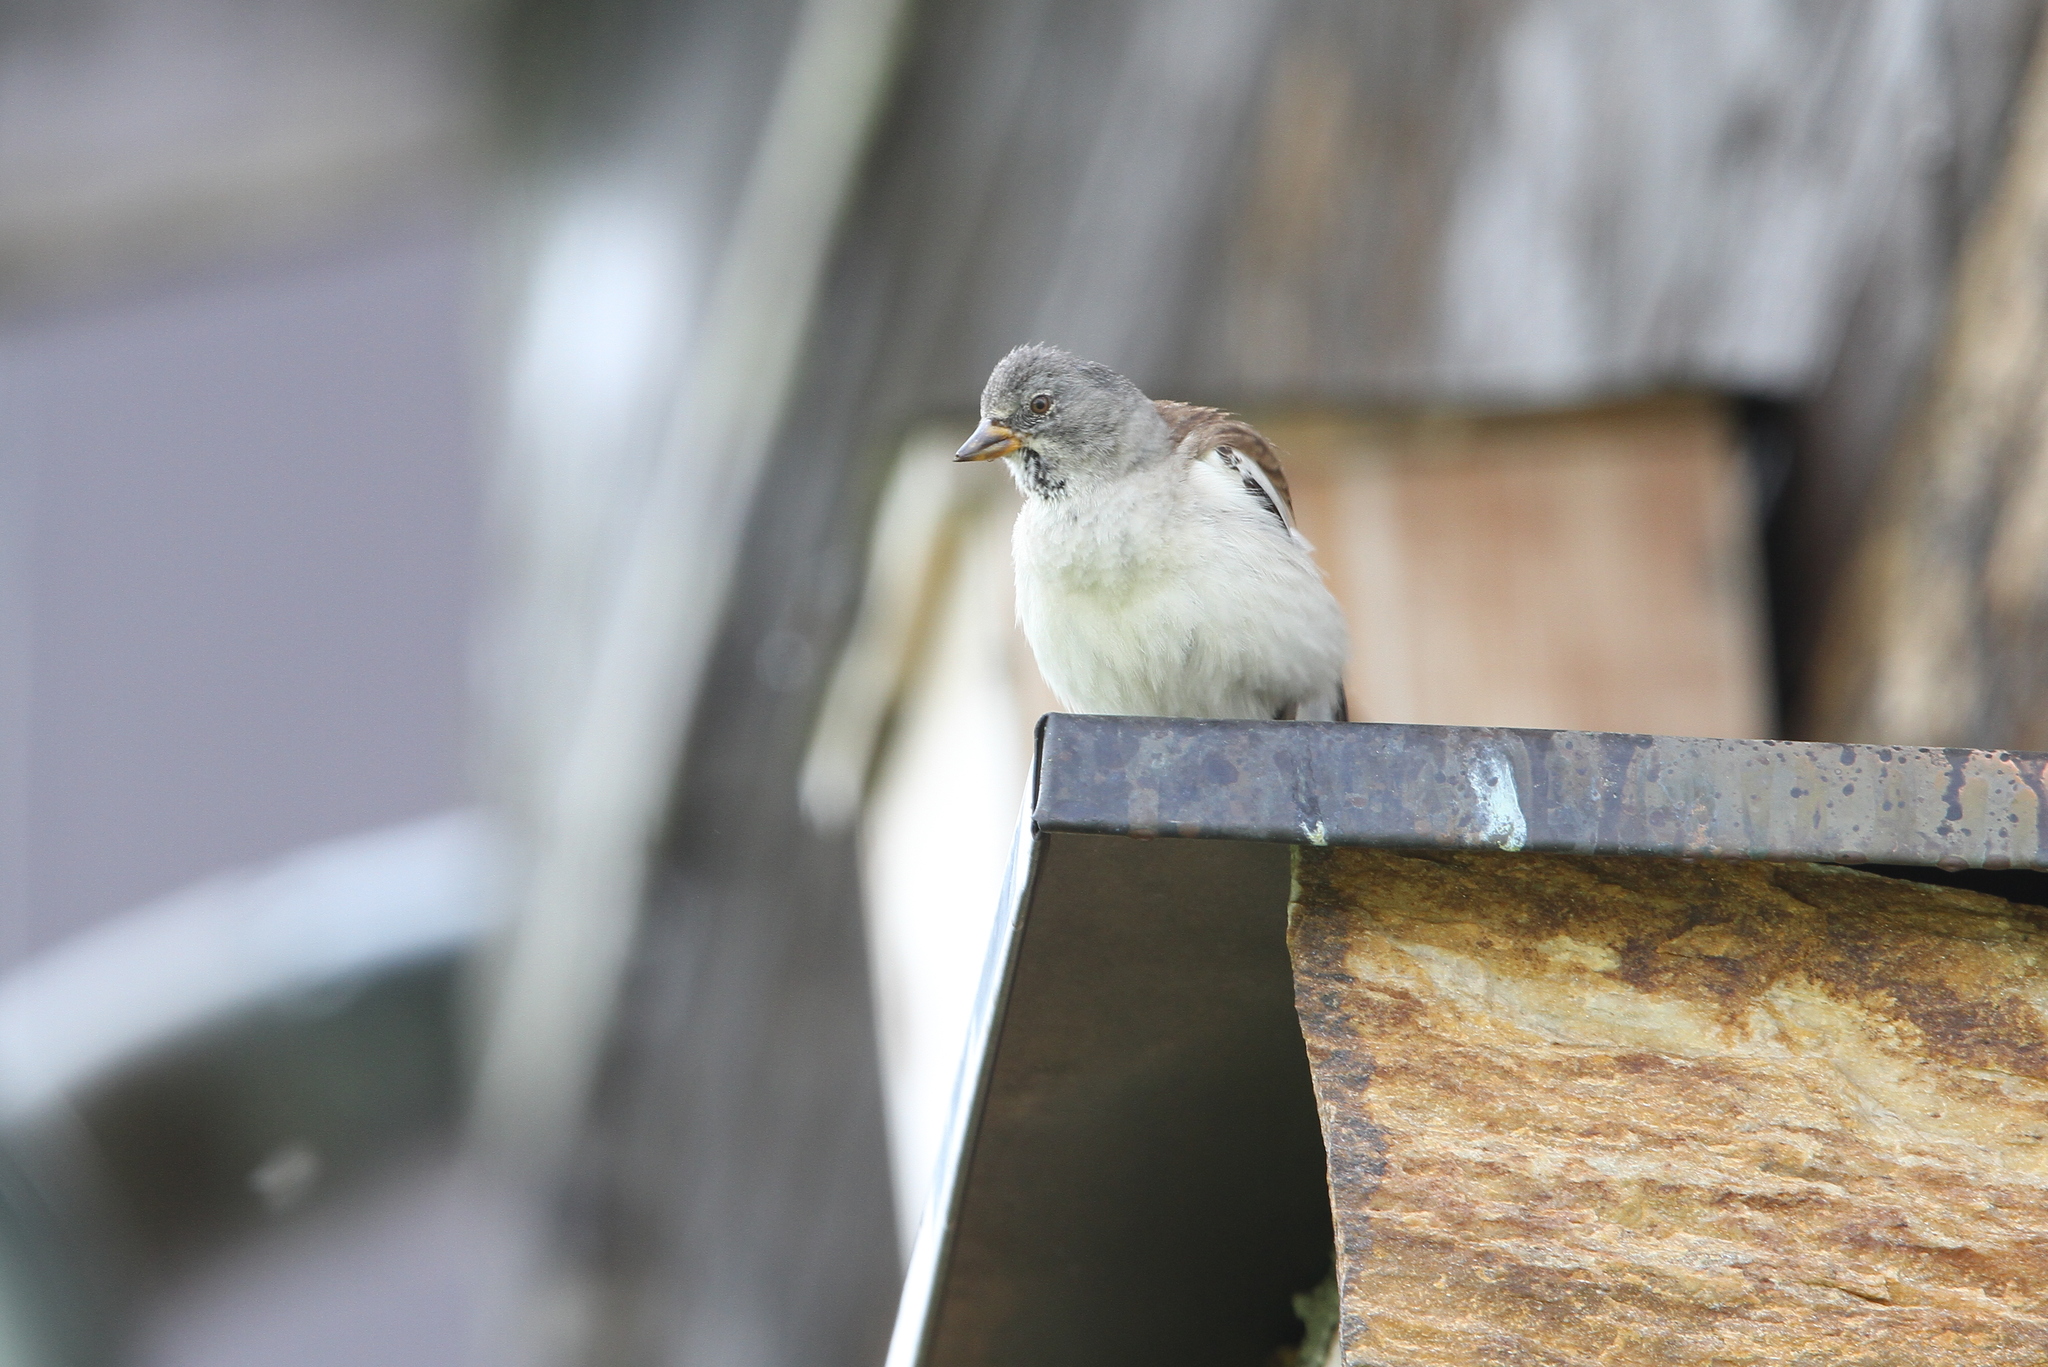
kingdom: Animalia
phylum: Chordata
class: Aves
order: Passeriformes
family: Passeridae
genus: Montifringilla
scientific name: Montifringilla nivalis
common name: White-winged snowfinch
